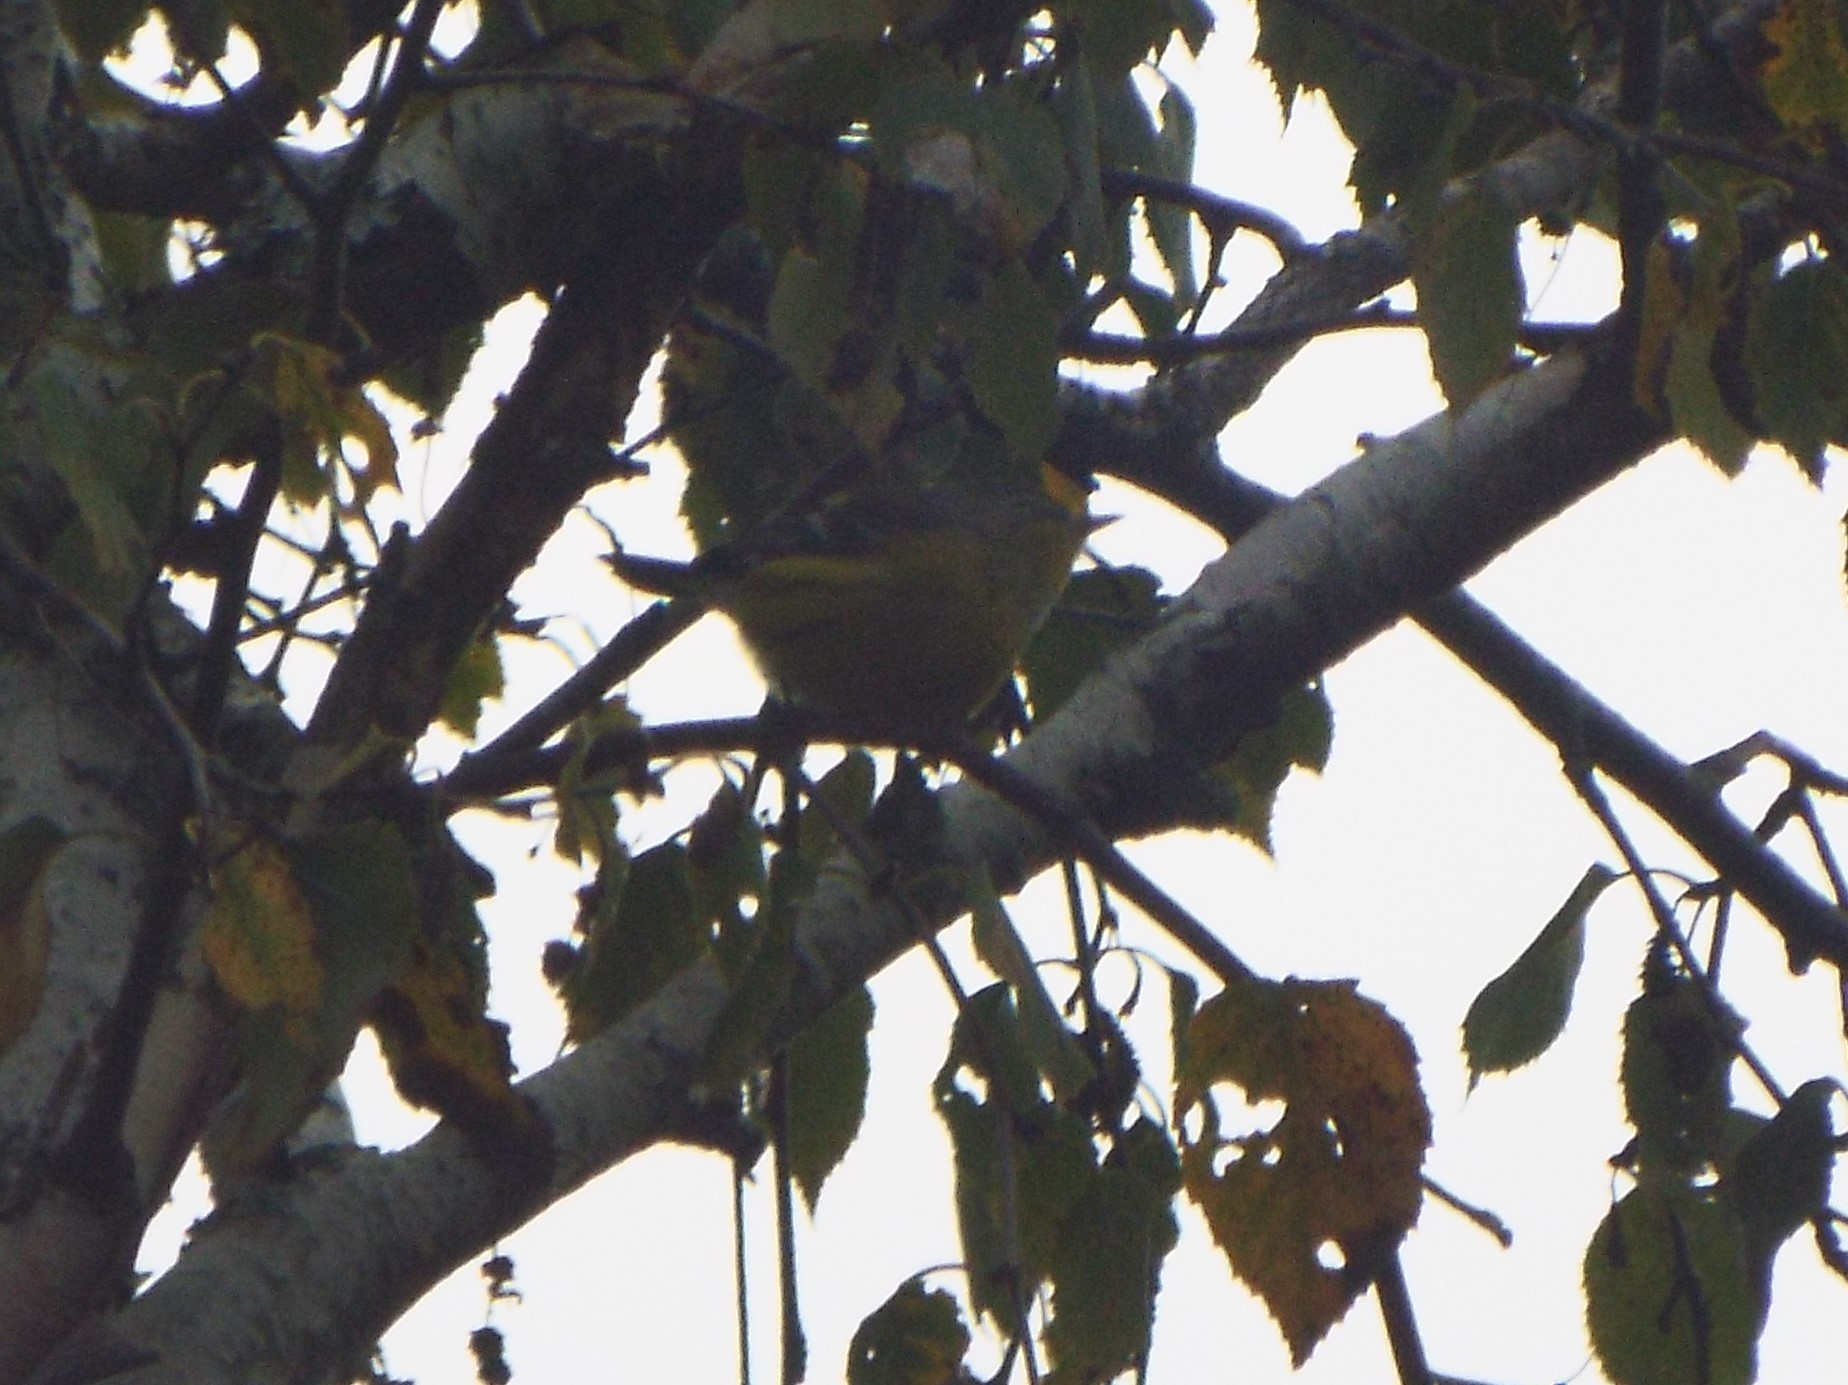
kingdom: Animalia
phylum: Chordata
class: Aves
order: Passeriformes
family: Parulidae
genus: Setophaga
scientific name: Setophaga magnolia
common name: Magnolia warbler
